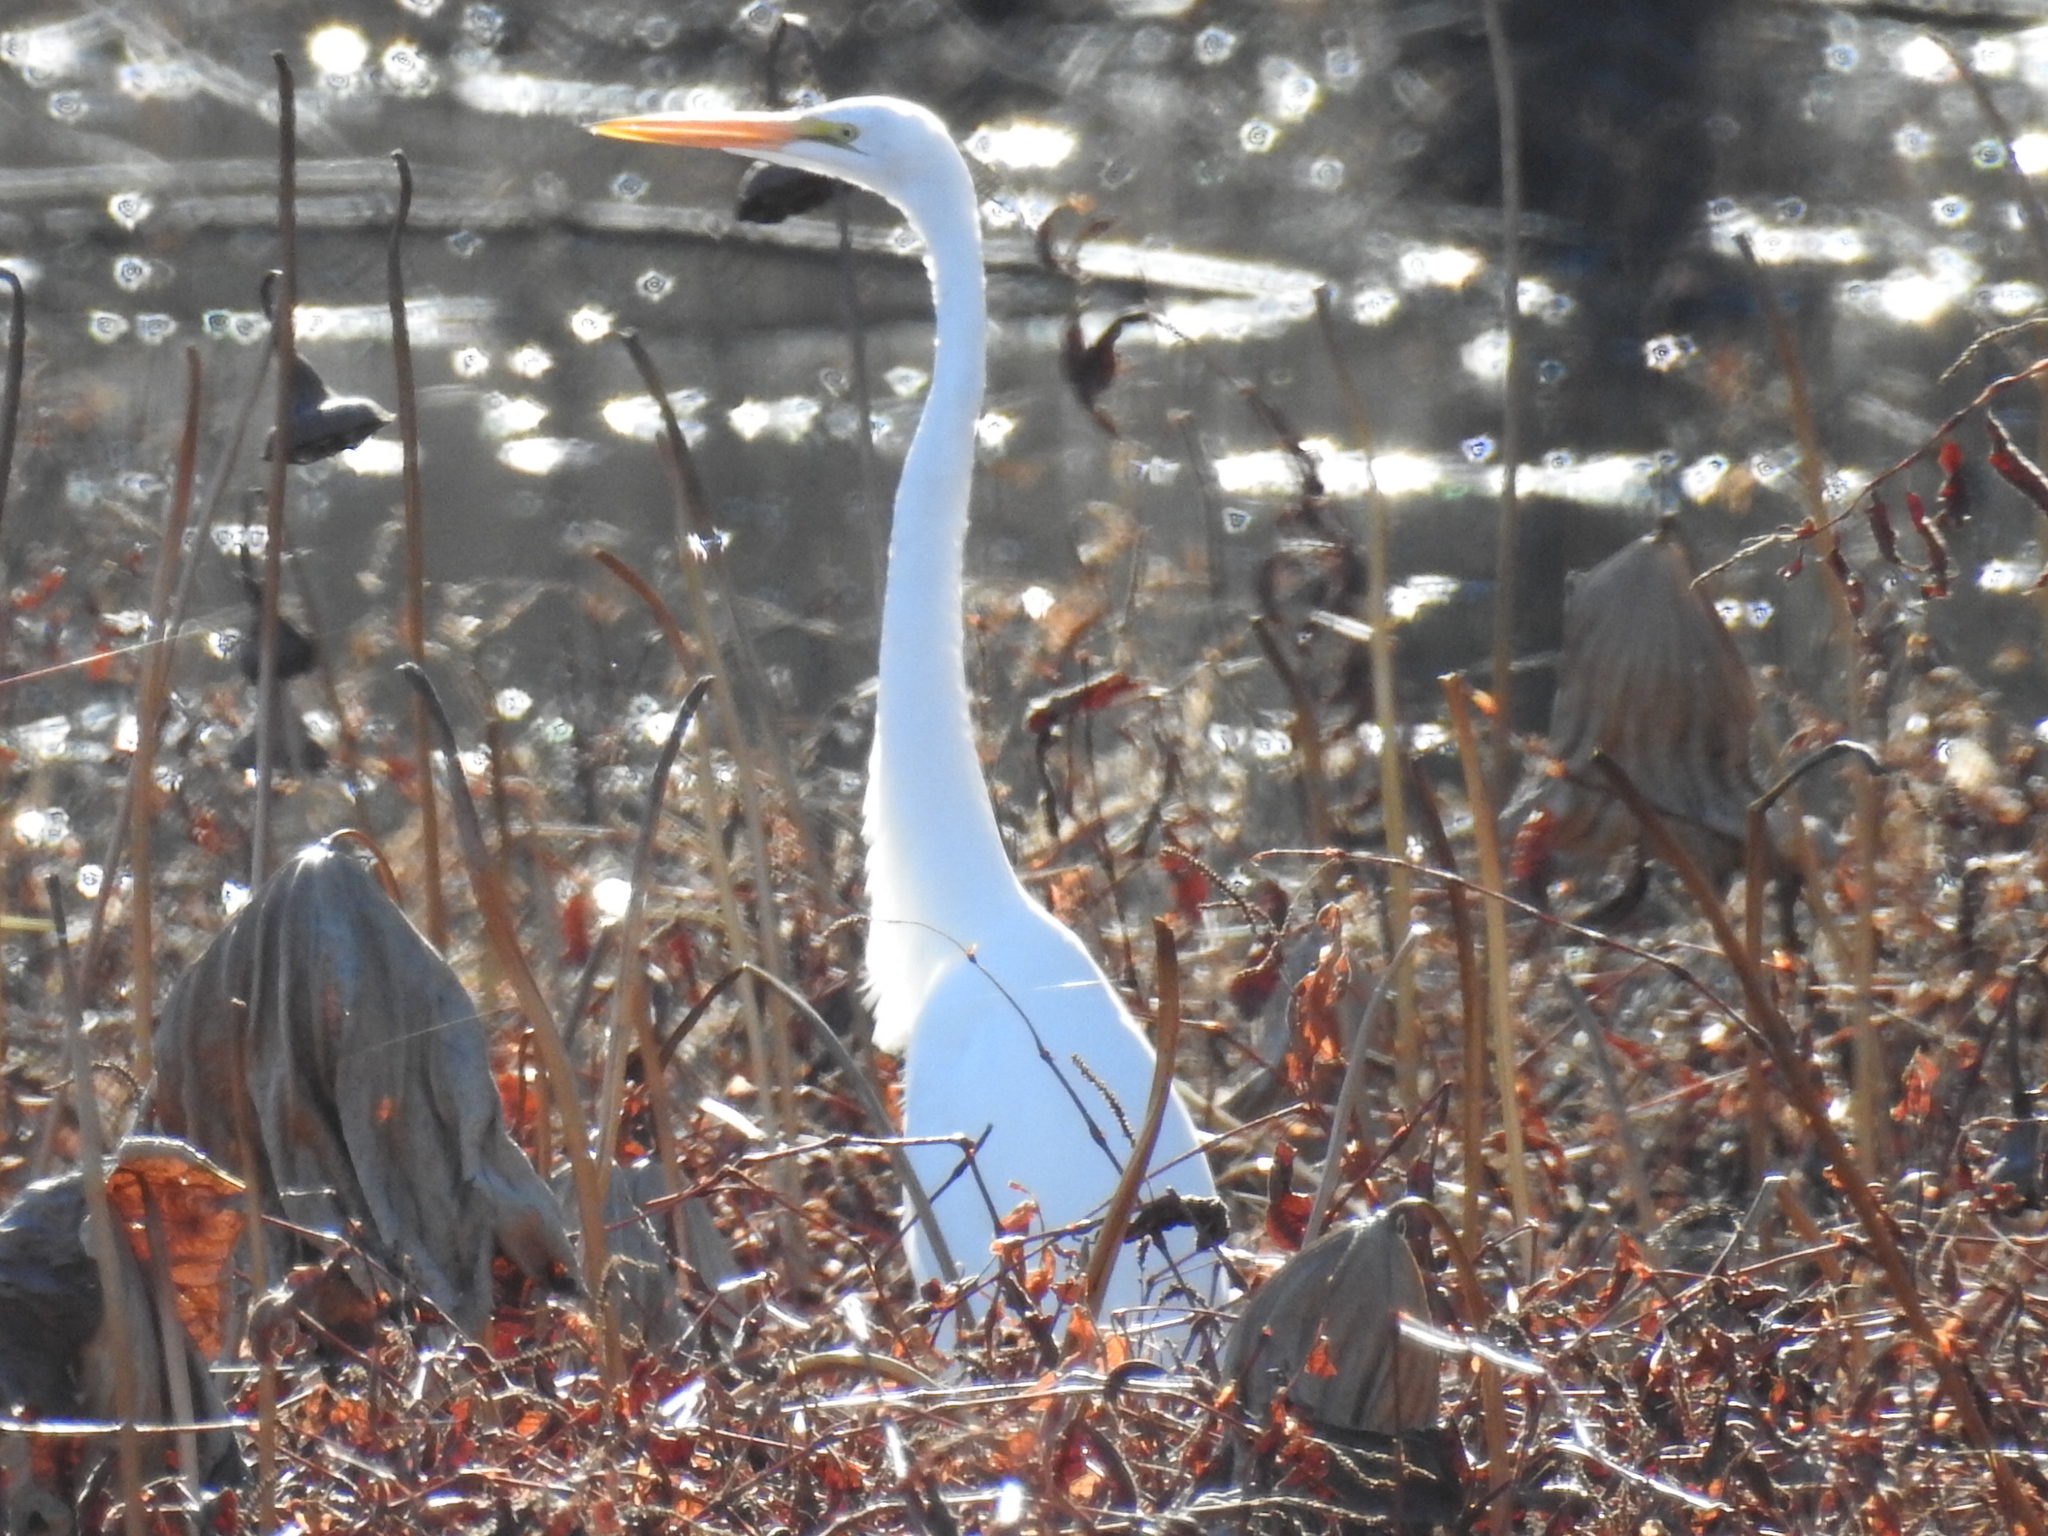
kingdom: Animalia
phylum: Chordata
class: Aves
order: Pelecaniformes
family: Ardeidae
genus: Ardea
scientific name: Ardea alba
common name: Great egret
